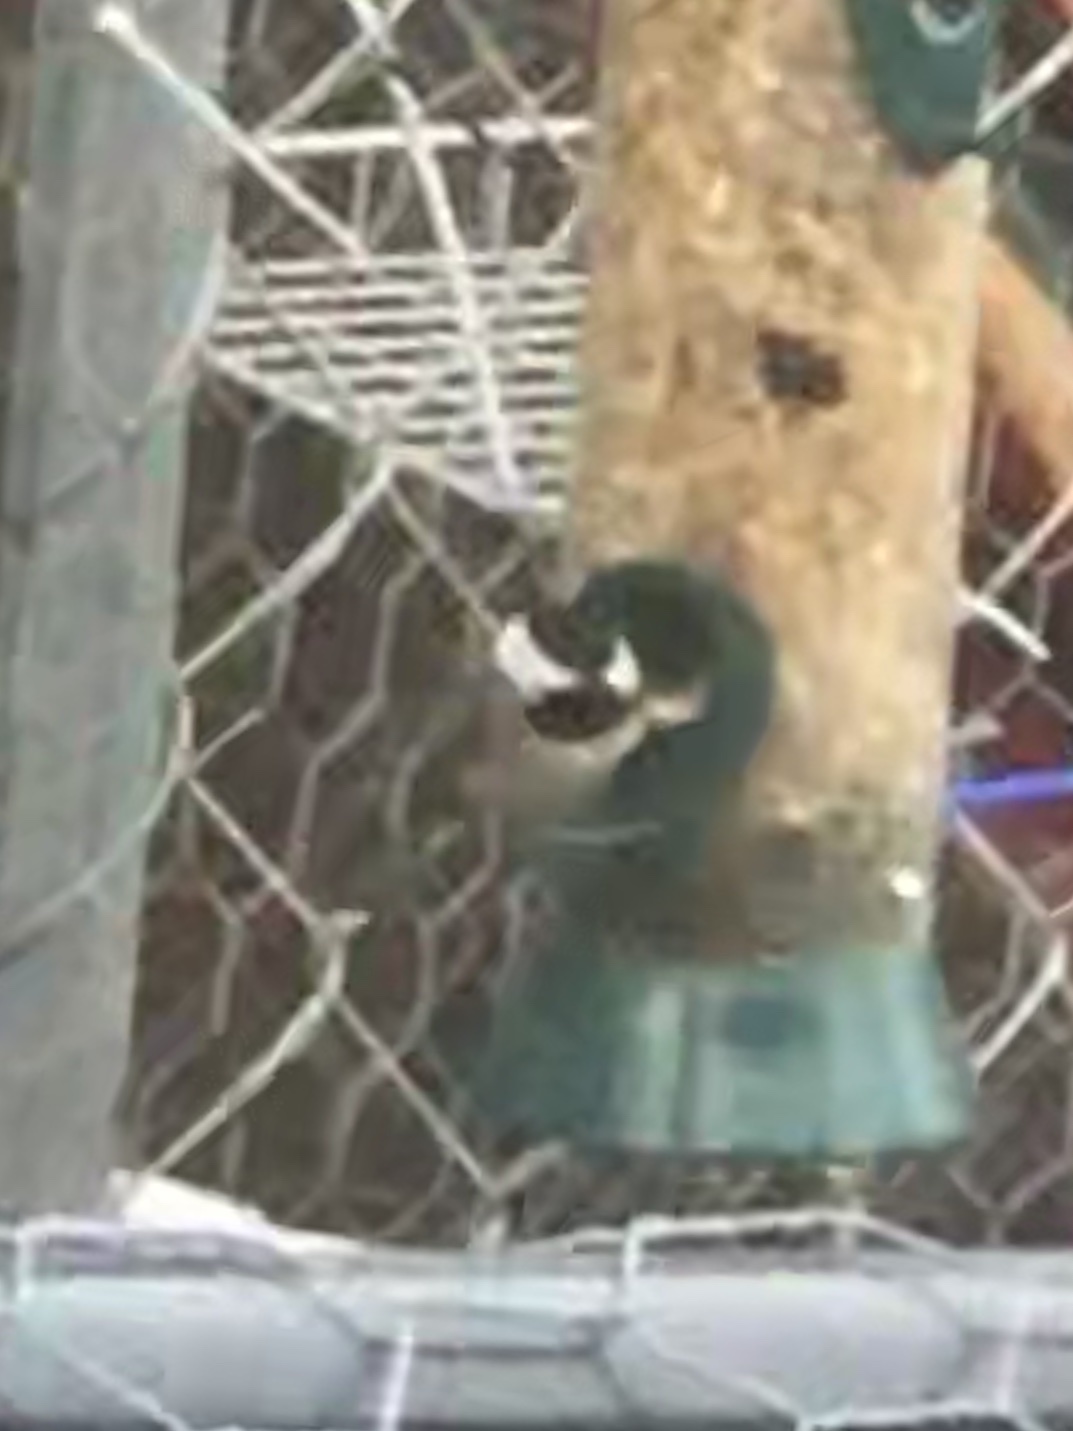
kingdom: Animalia
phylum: Chordata
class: Aves
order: Passeriformes
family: Paridae
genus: Poecile
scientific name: Poecile carolinensis
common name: Carolina chickadee
